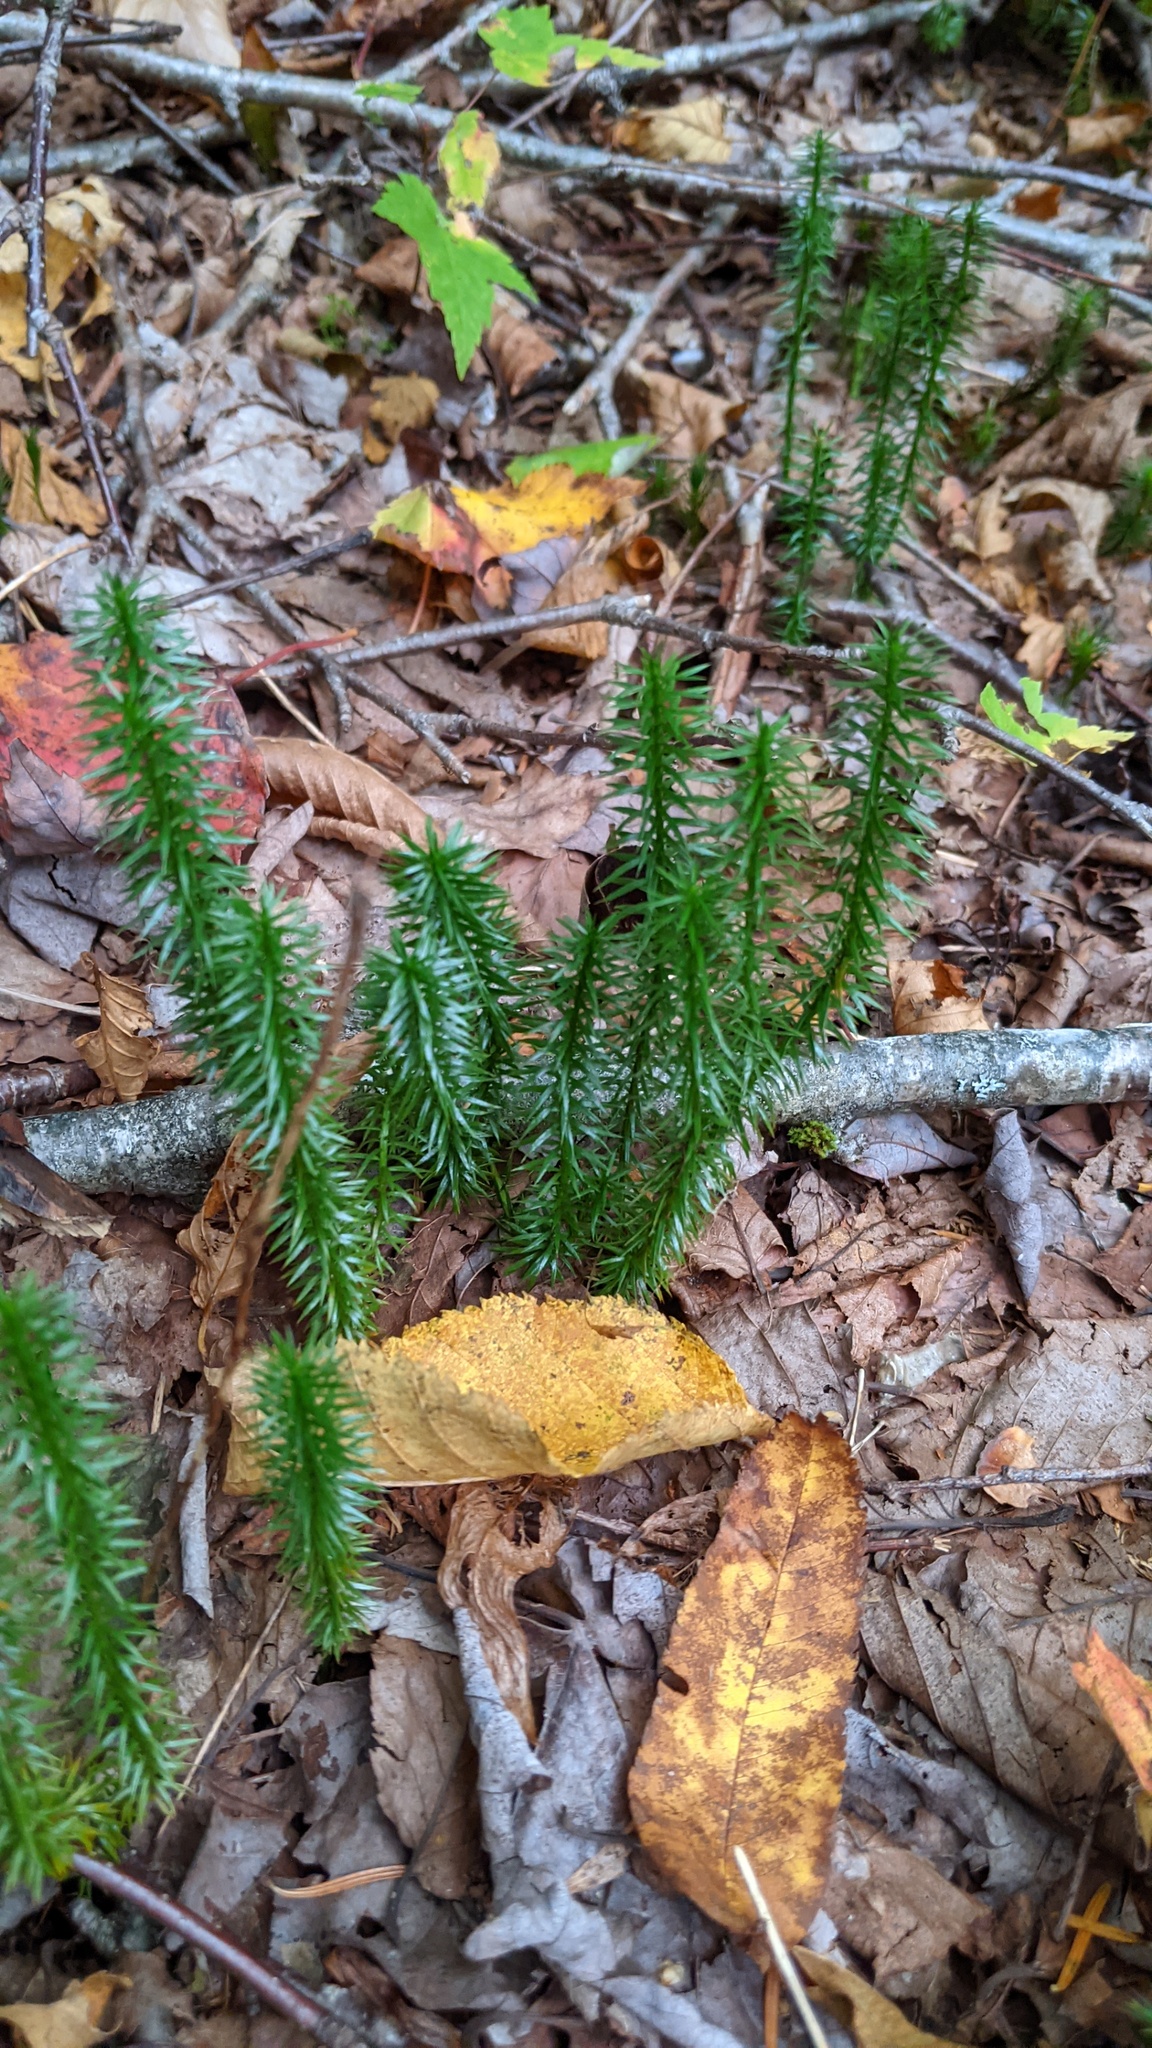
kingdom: Plantae
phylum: Tracheophyta
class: Lycopodiopsida
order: Lycopodiales
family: Lycopodiaceae
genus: Spinulum
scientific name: Spinulum annotinum
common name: Interrupted club-moss
